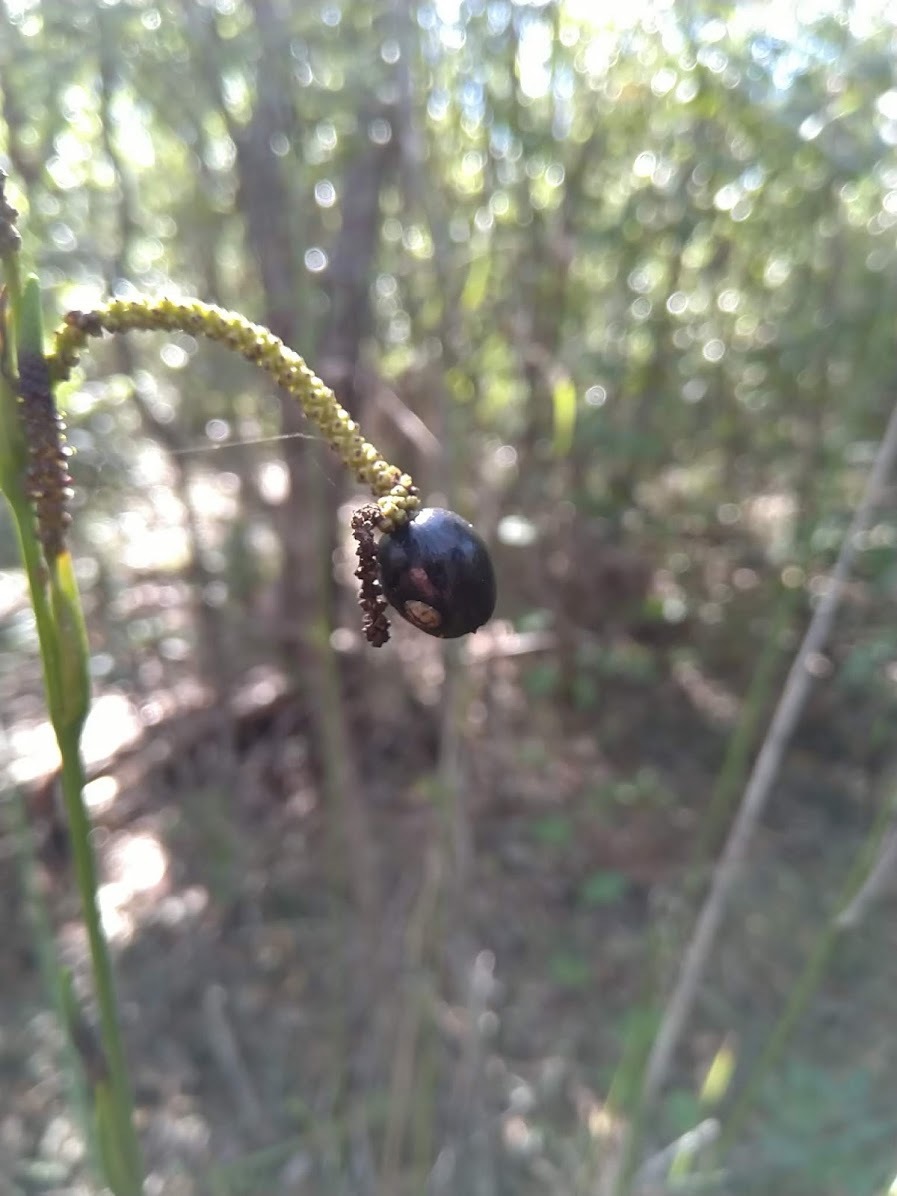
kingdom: Plantae
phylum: Tracheophyta
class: Liliopsida
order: Alismatales
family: Araceae
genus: Gymnostachys
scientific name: Gymnostachys anceps
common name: Settler's-flax
